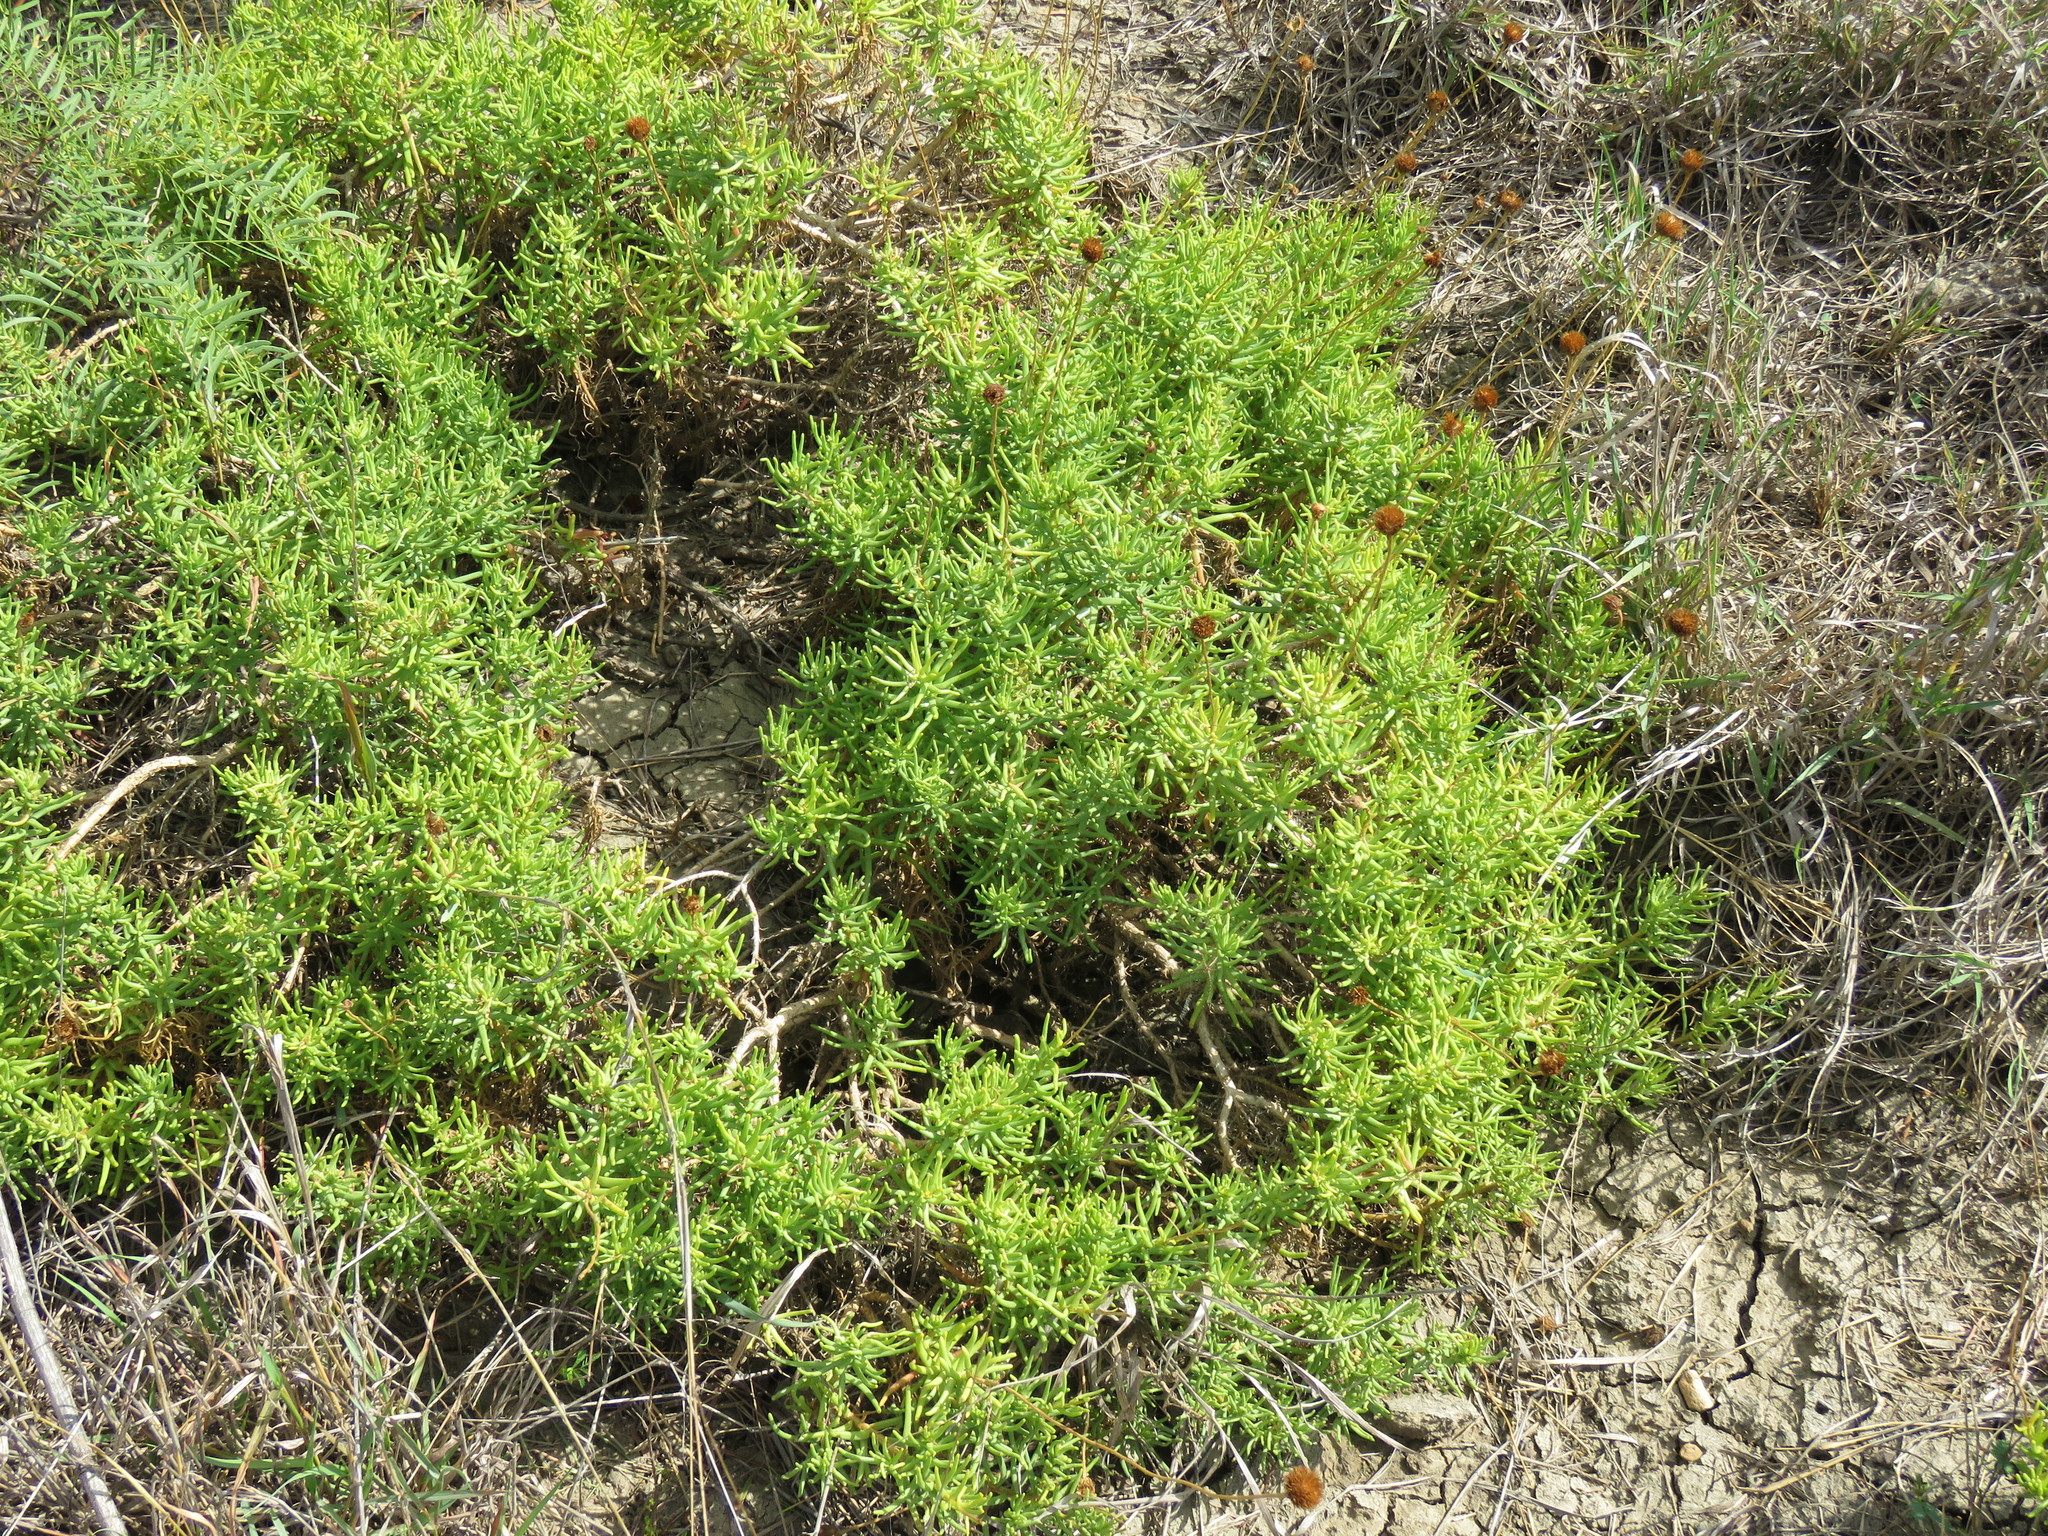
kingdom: Plantae
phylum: Tracheophyta
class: Magnoliopsida
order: Asterales
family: Asteraceae
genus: Varilla
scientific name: Varilla texana
